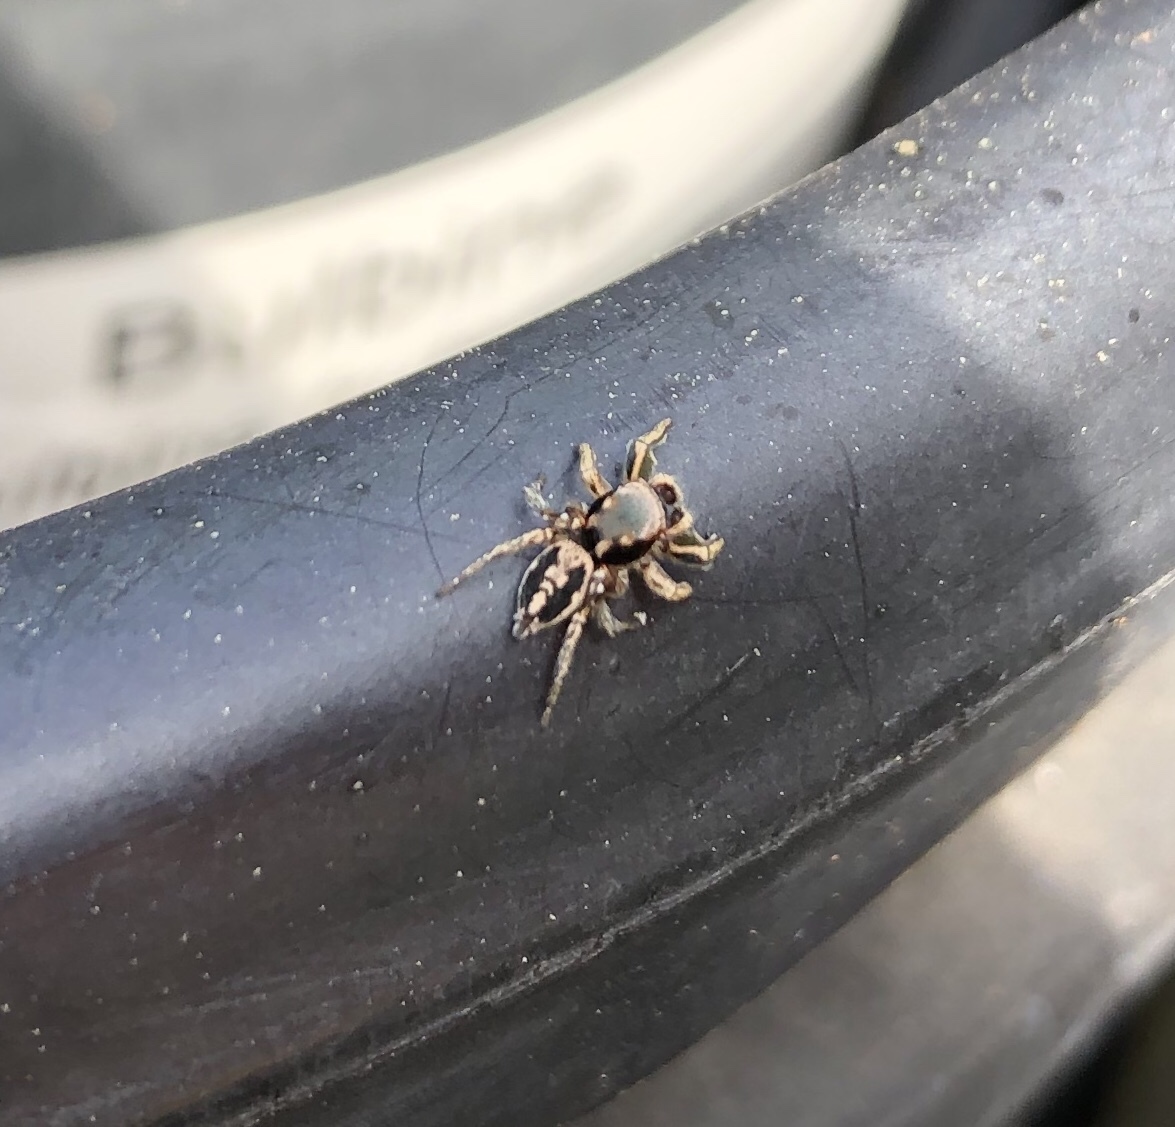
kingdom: Animalia
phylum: Arthropoda
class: Arachnida
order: Araneae
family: Salticidae
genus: Habronattus
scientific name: Habronattus pyrrithrix
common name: Jumping spider
